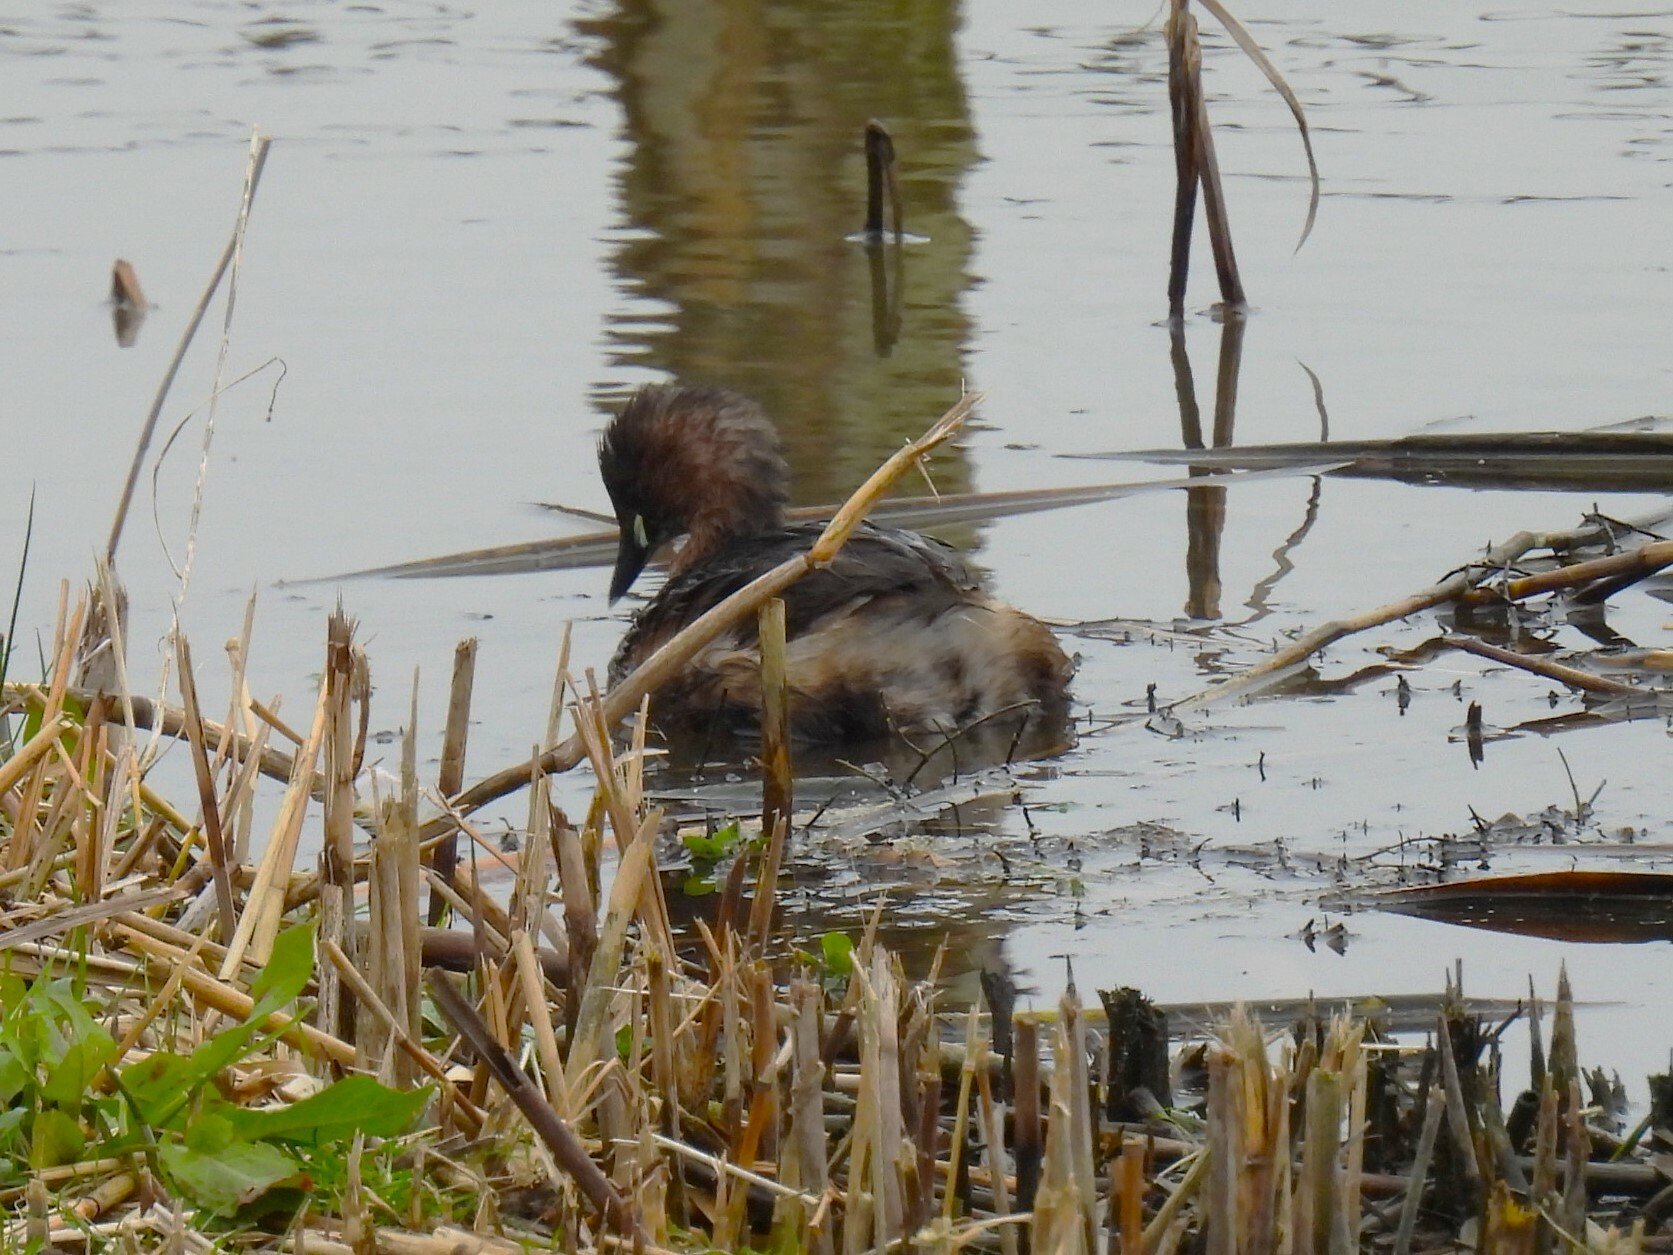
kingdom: Animalia
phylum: Chordata
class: Aves
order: Podicipediformes
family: Podicipedidae
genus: Tachybaptus
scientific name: Tachybaptus ruficollis
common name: Little grebe
